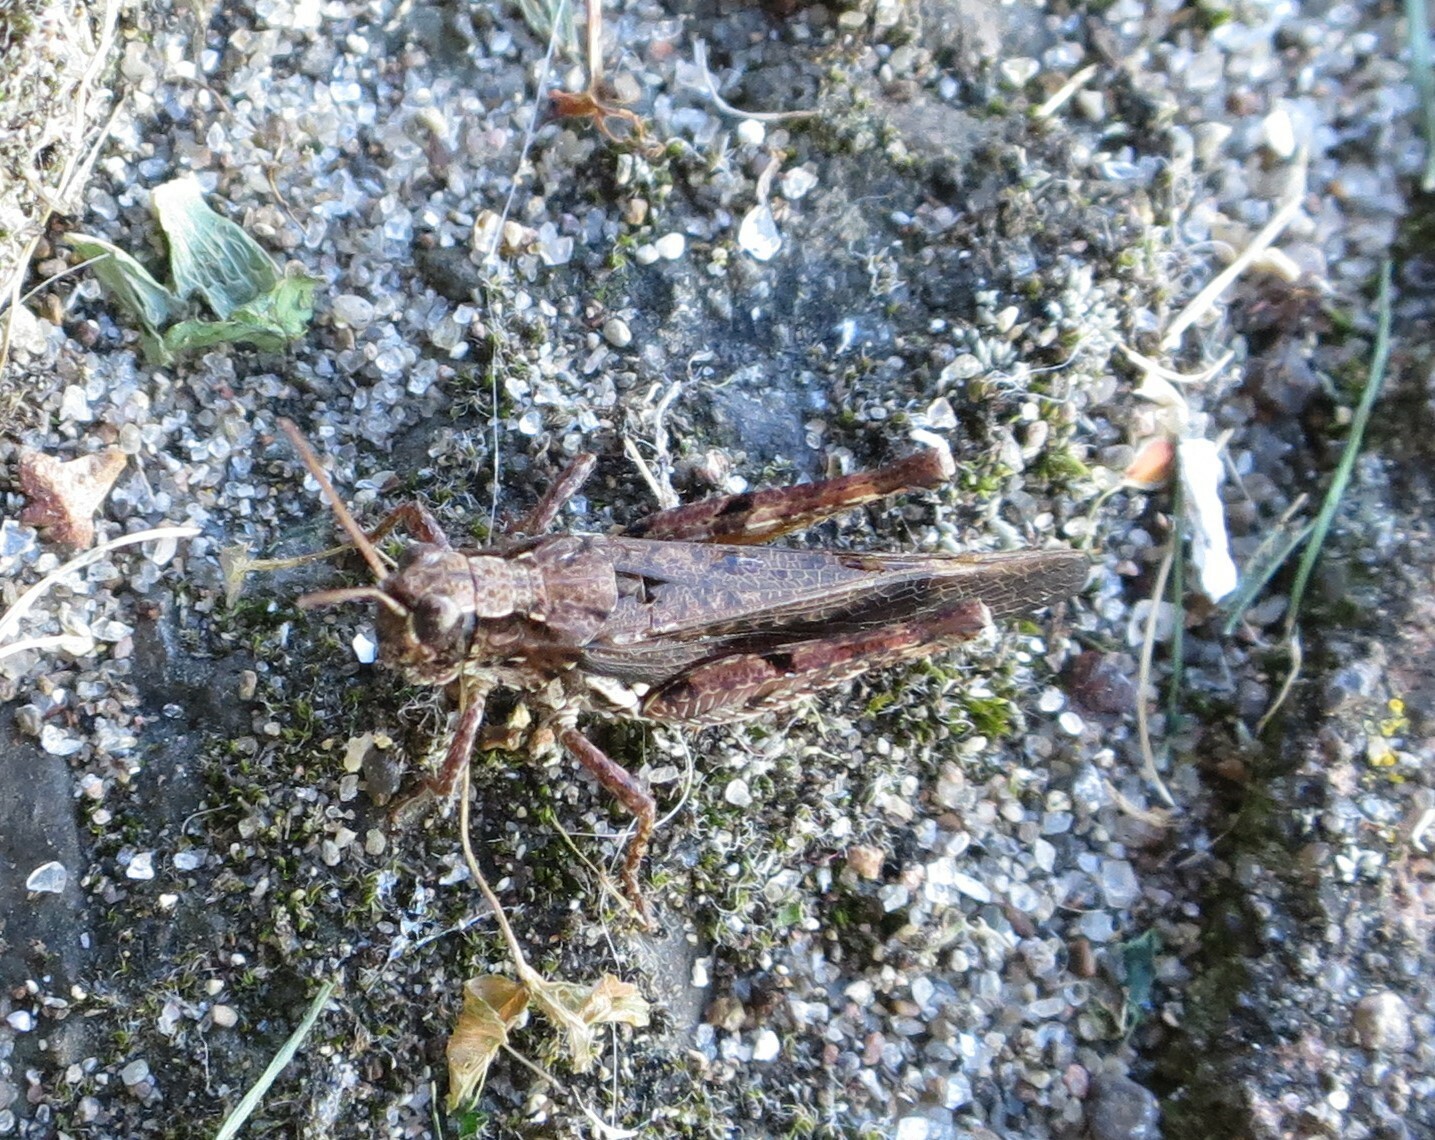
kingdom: Animalia
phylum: Arthropoda
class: Insecta
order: Orthoptera
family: Acrididae
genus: Phaulacridium
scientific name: Phaulacridium marginale
